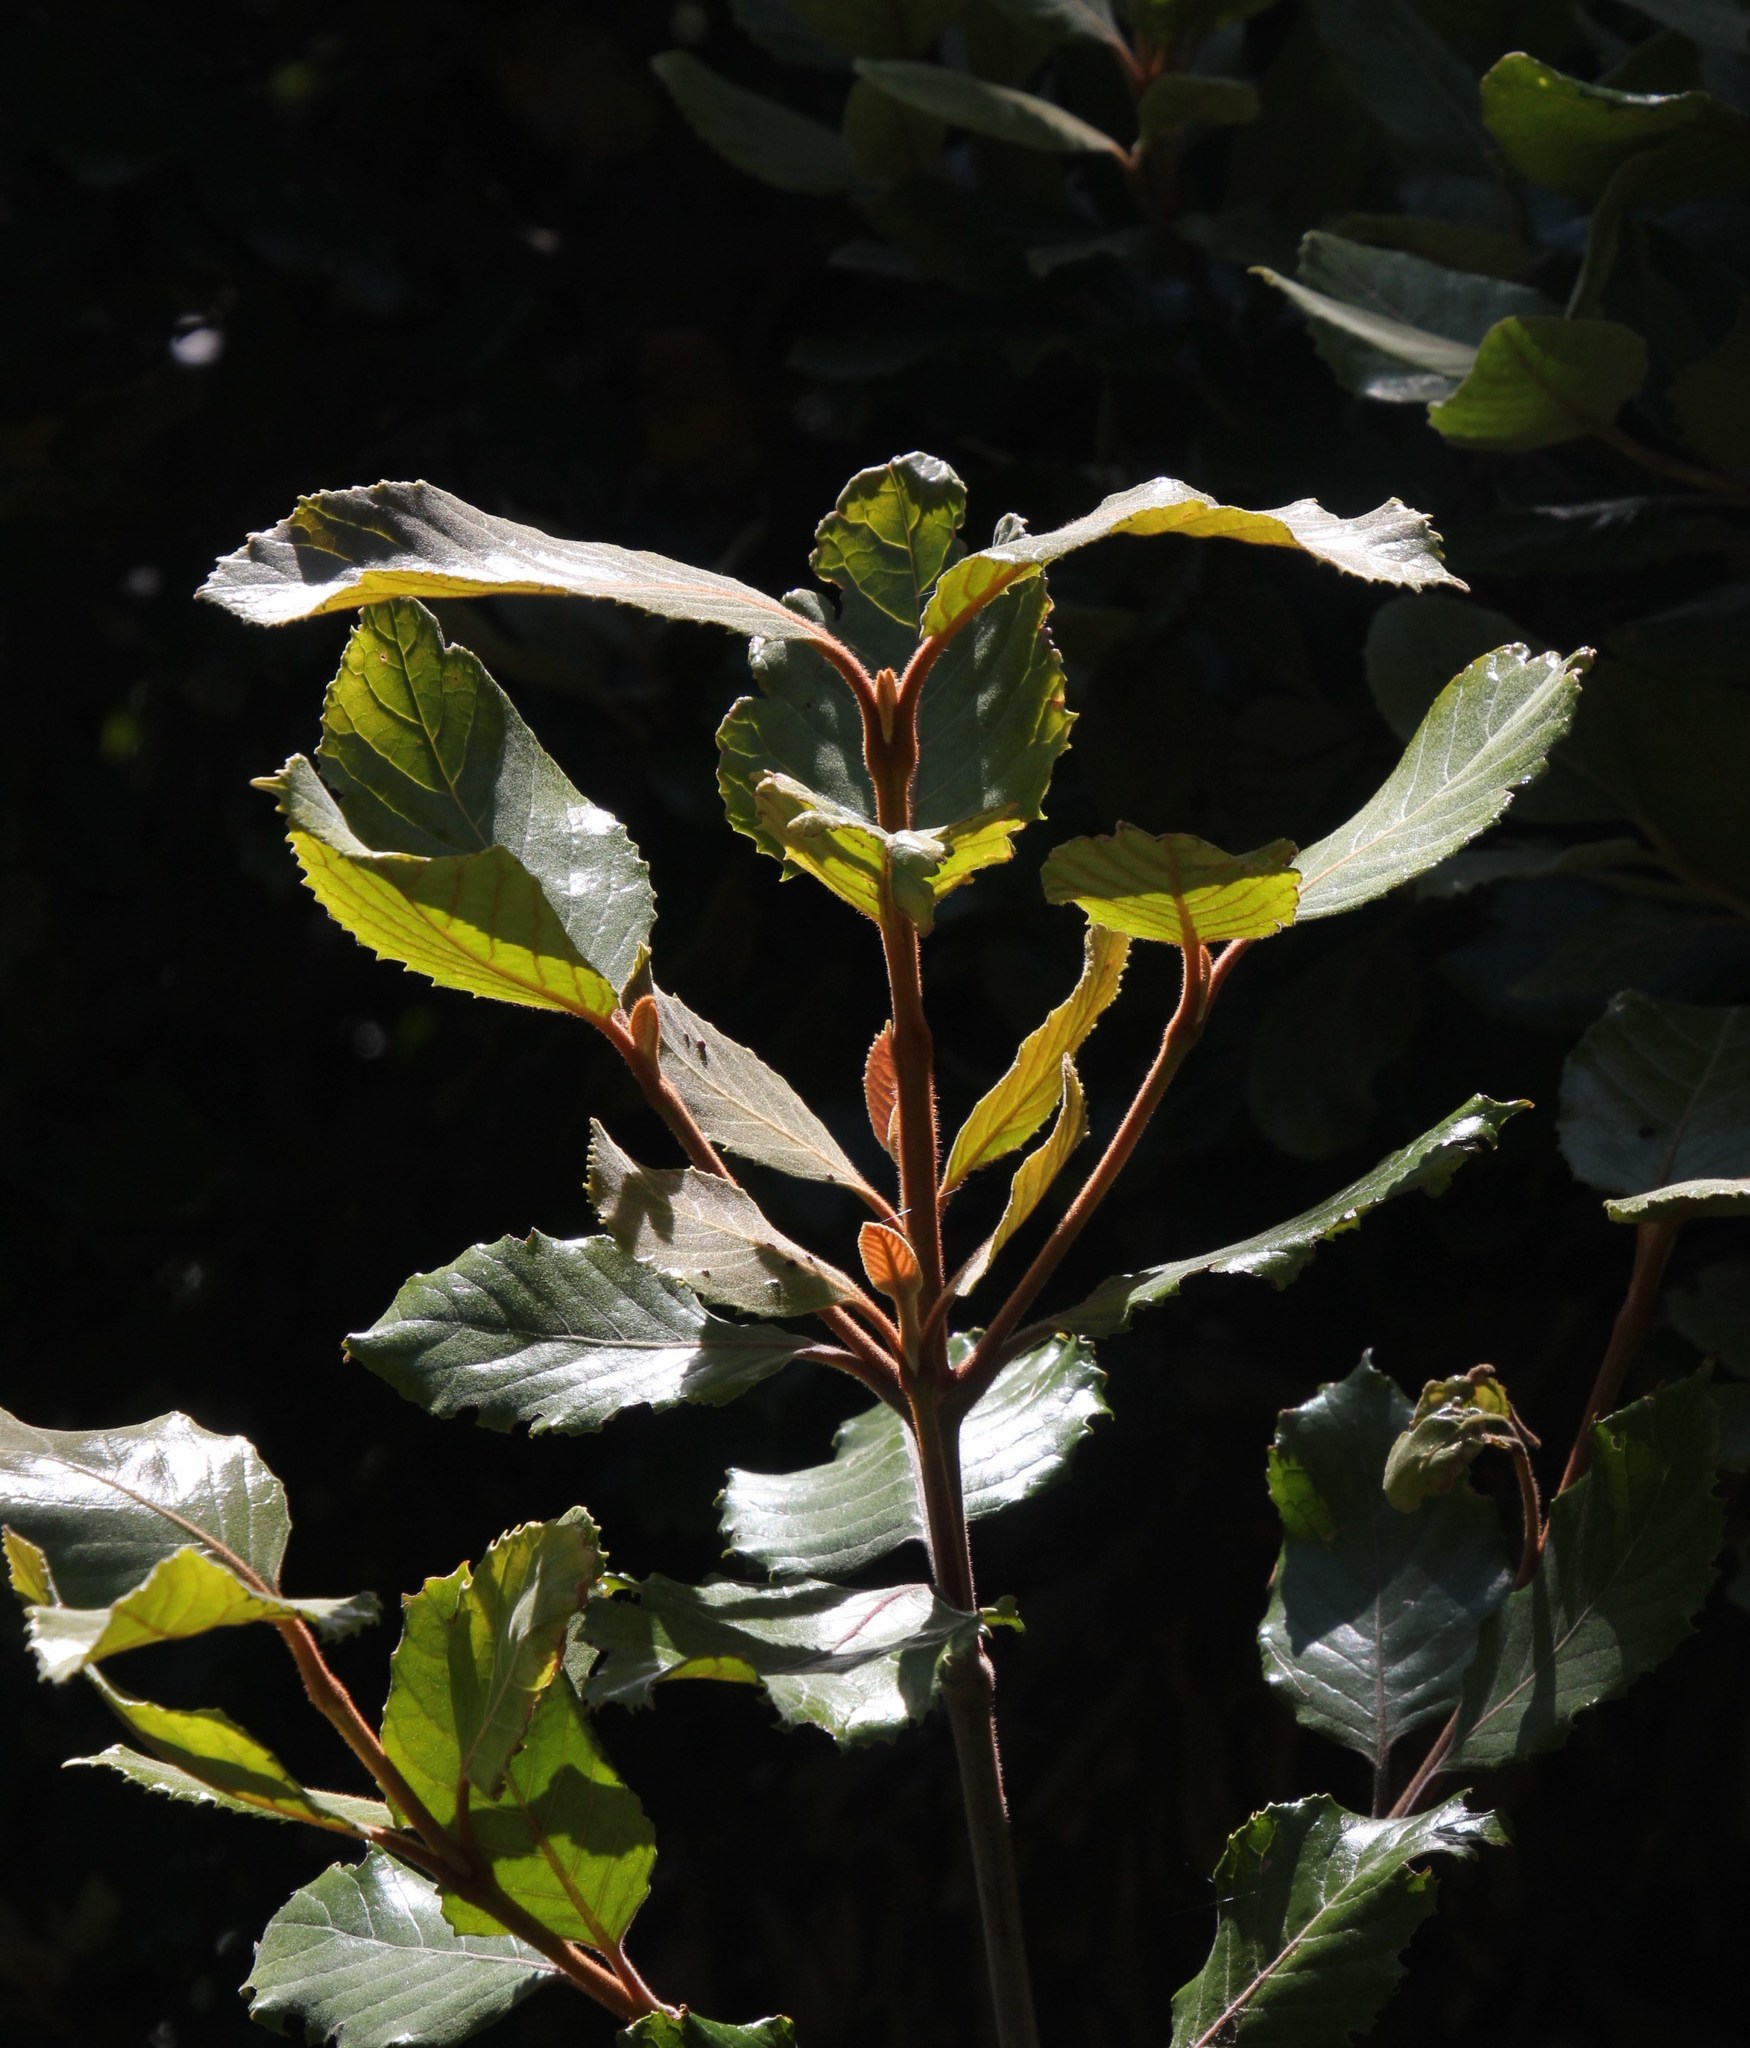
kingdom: Plantae
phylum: Tracheophyta
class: Magnoliopsida
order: Proteales
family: Proteaceae
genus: Brabejum
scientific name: Brabejum stellatifolium
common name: Wild almond
